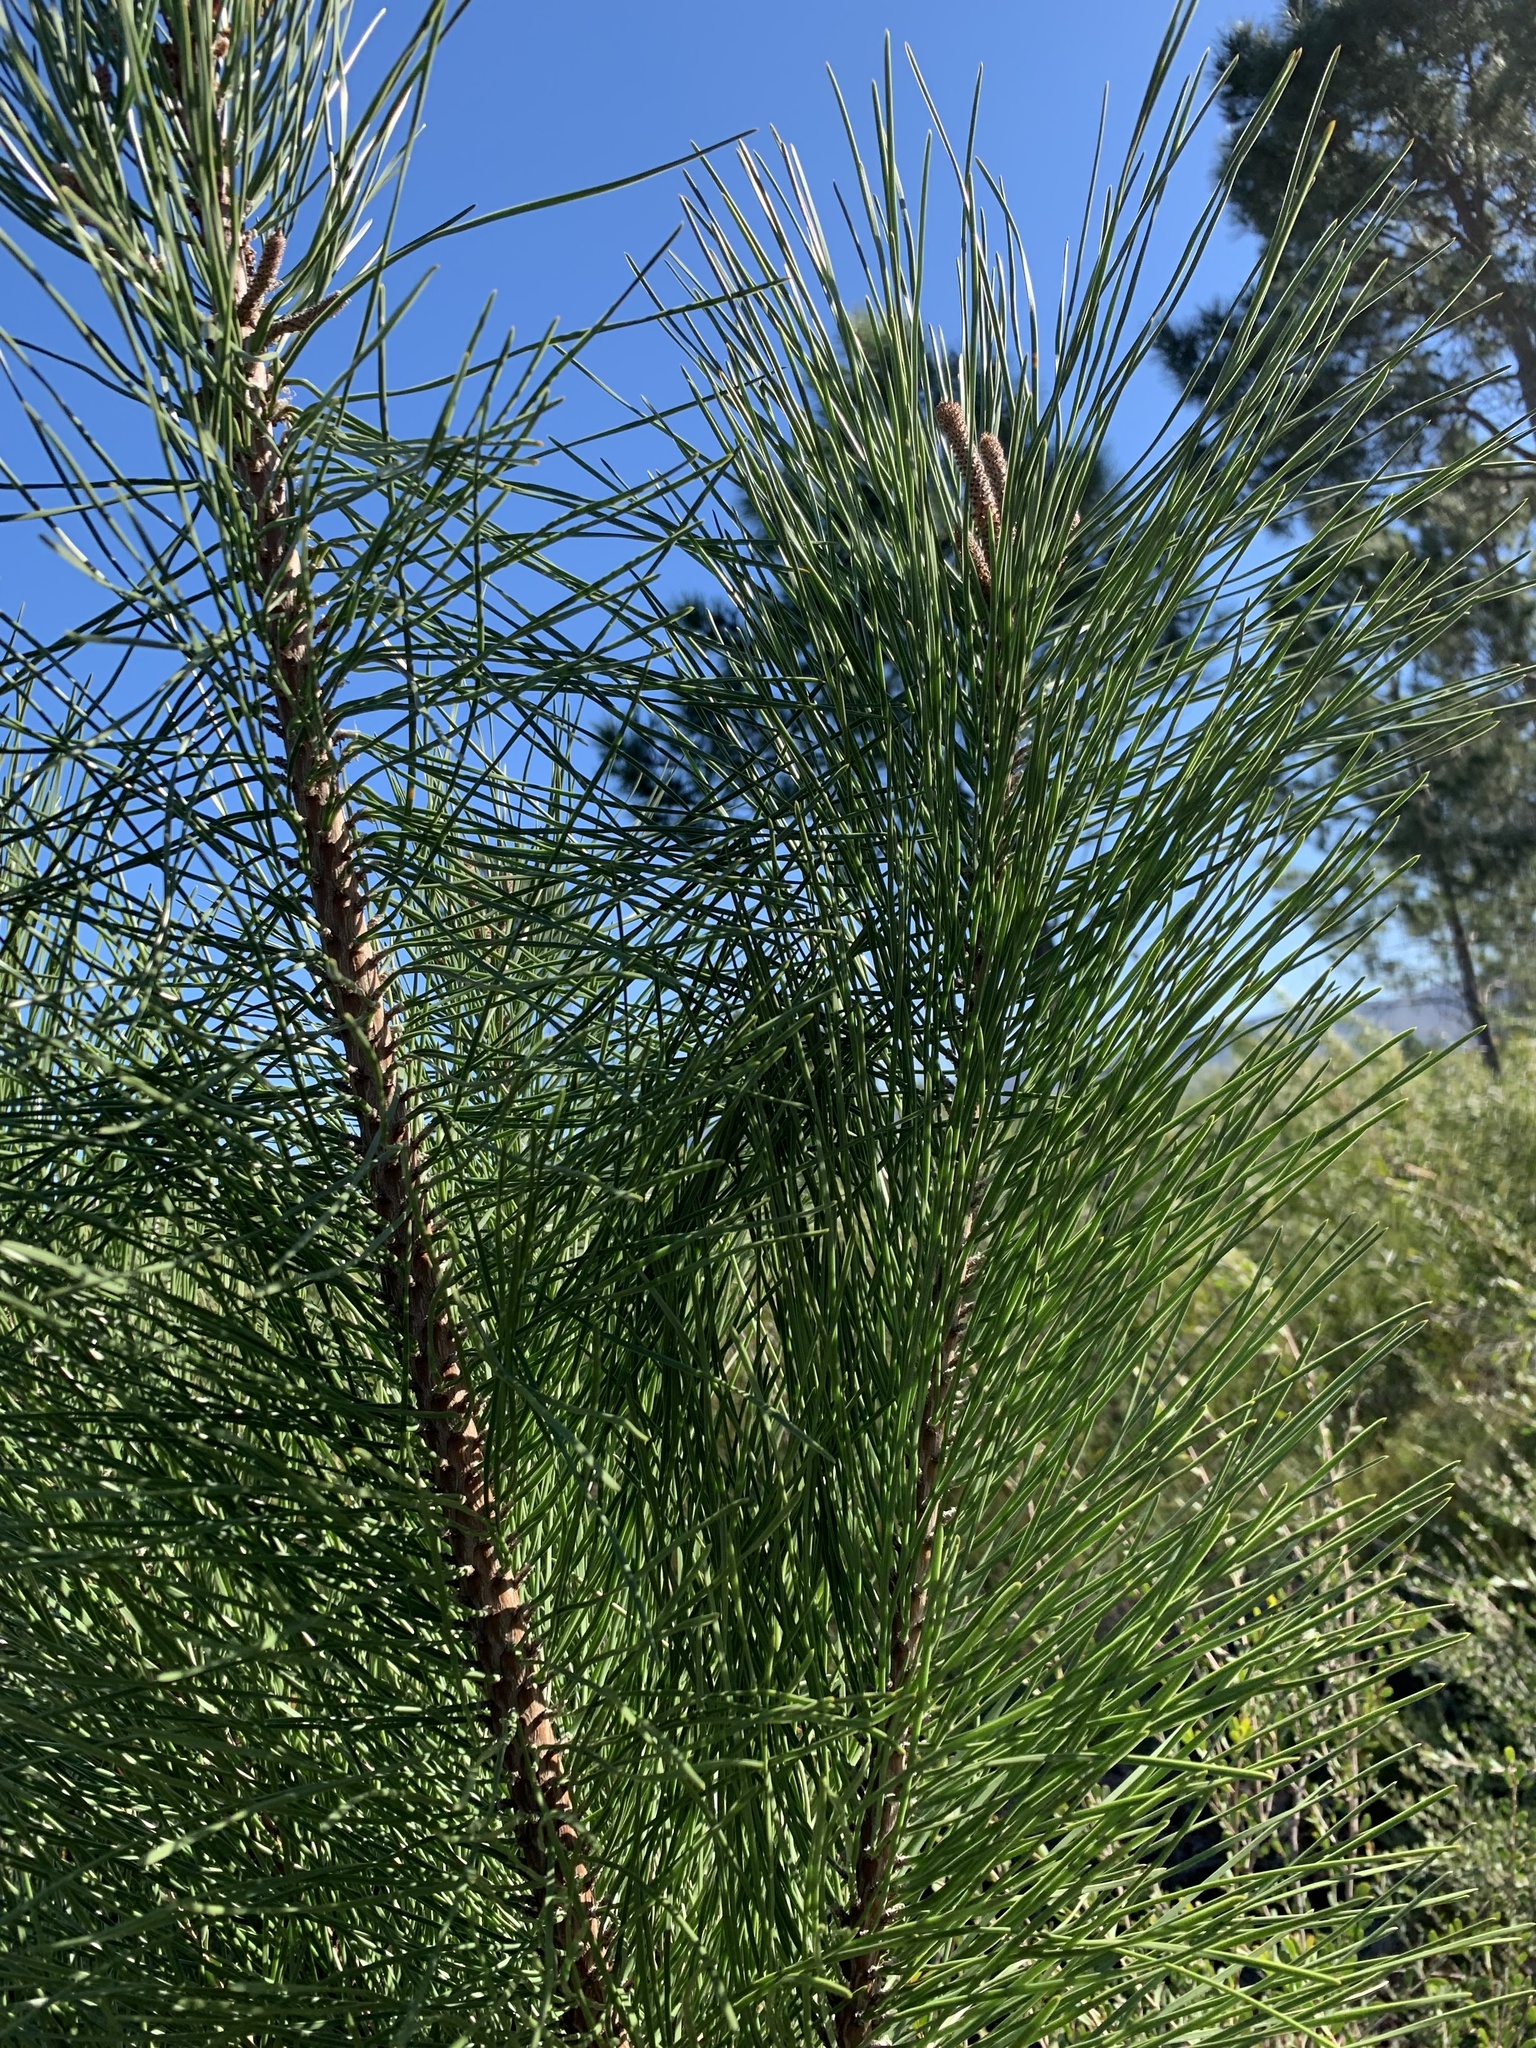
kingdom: Plantae
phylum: Tracheophyta
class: Pinopsida
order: Pinales
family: Pinaceae
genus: Pinus
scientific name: Pinus pinaster
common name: Maritime pine
